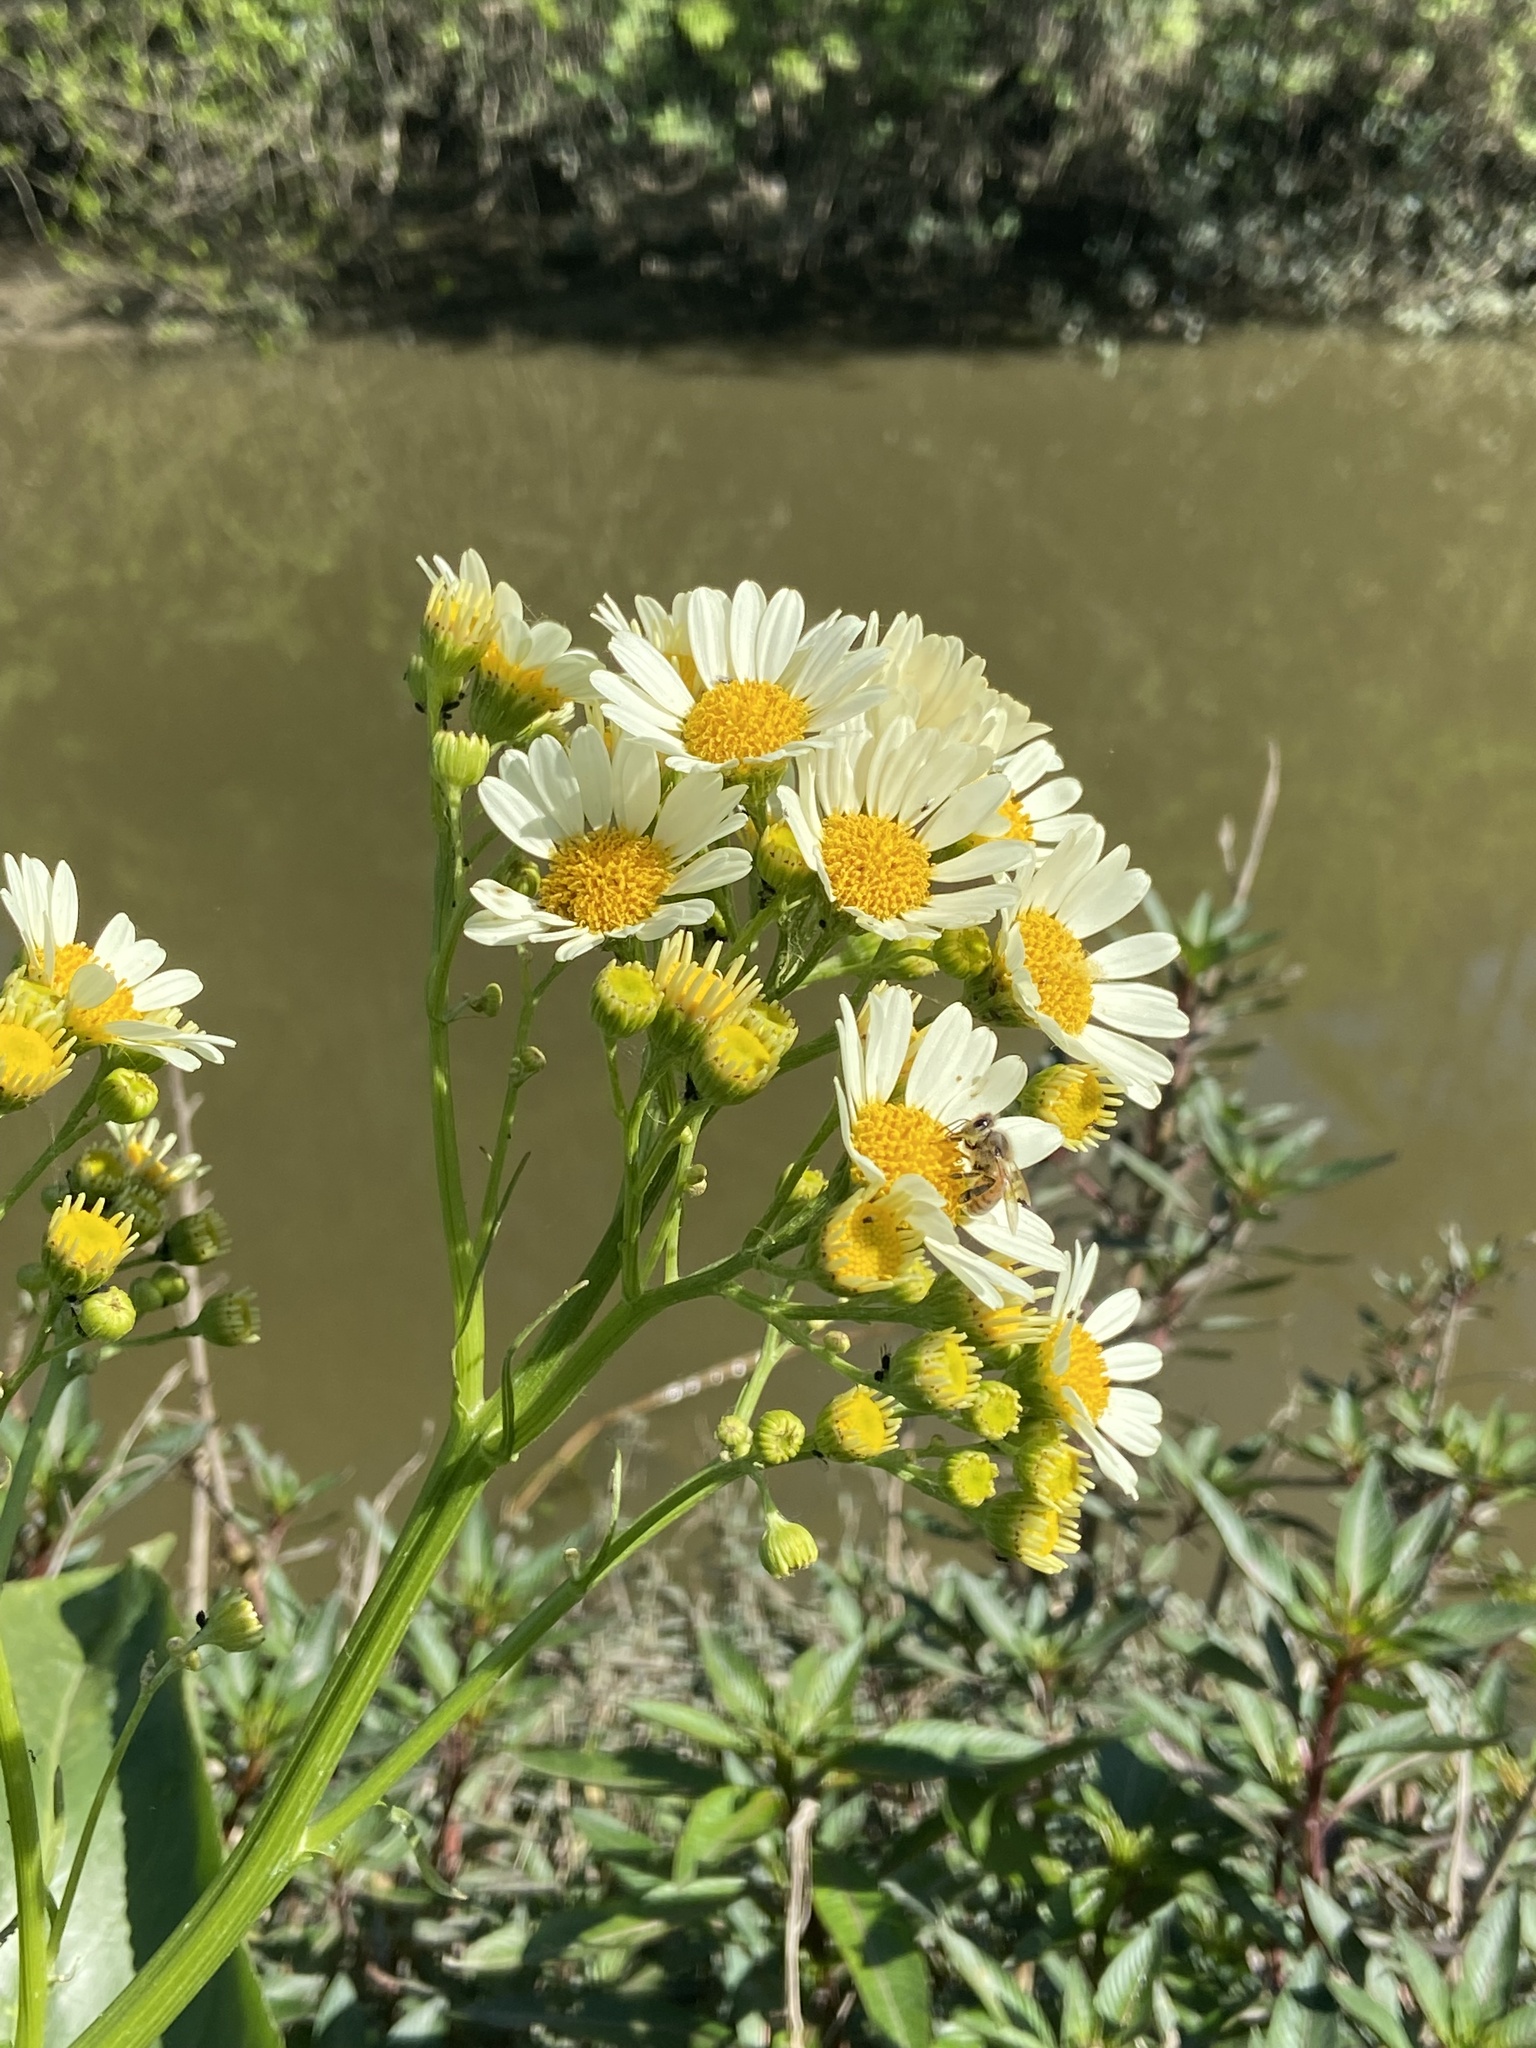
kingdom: Plantae
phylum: Tracheophyta
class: Magnoliopsida
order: Asterales
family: Asteraceae
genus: Senecio
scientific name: Senecio bonariensis
